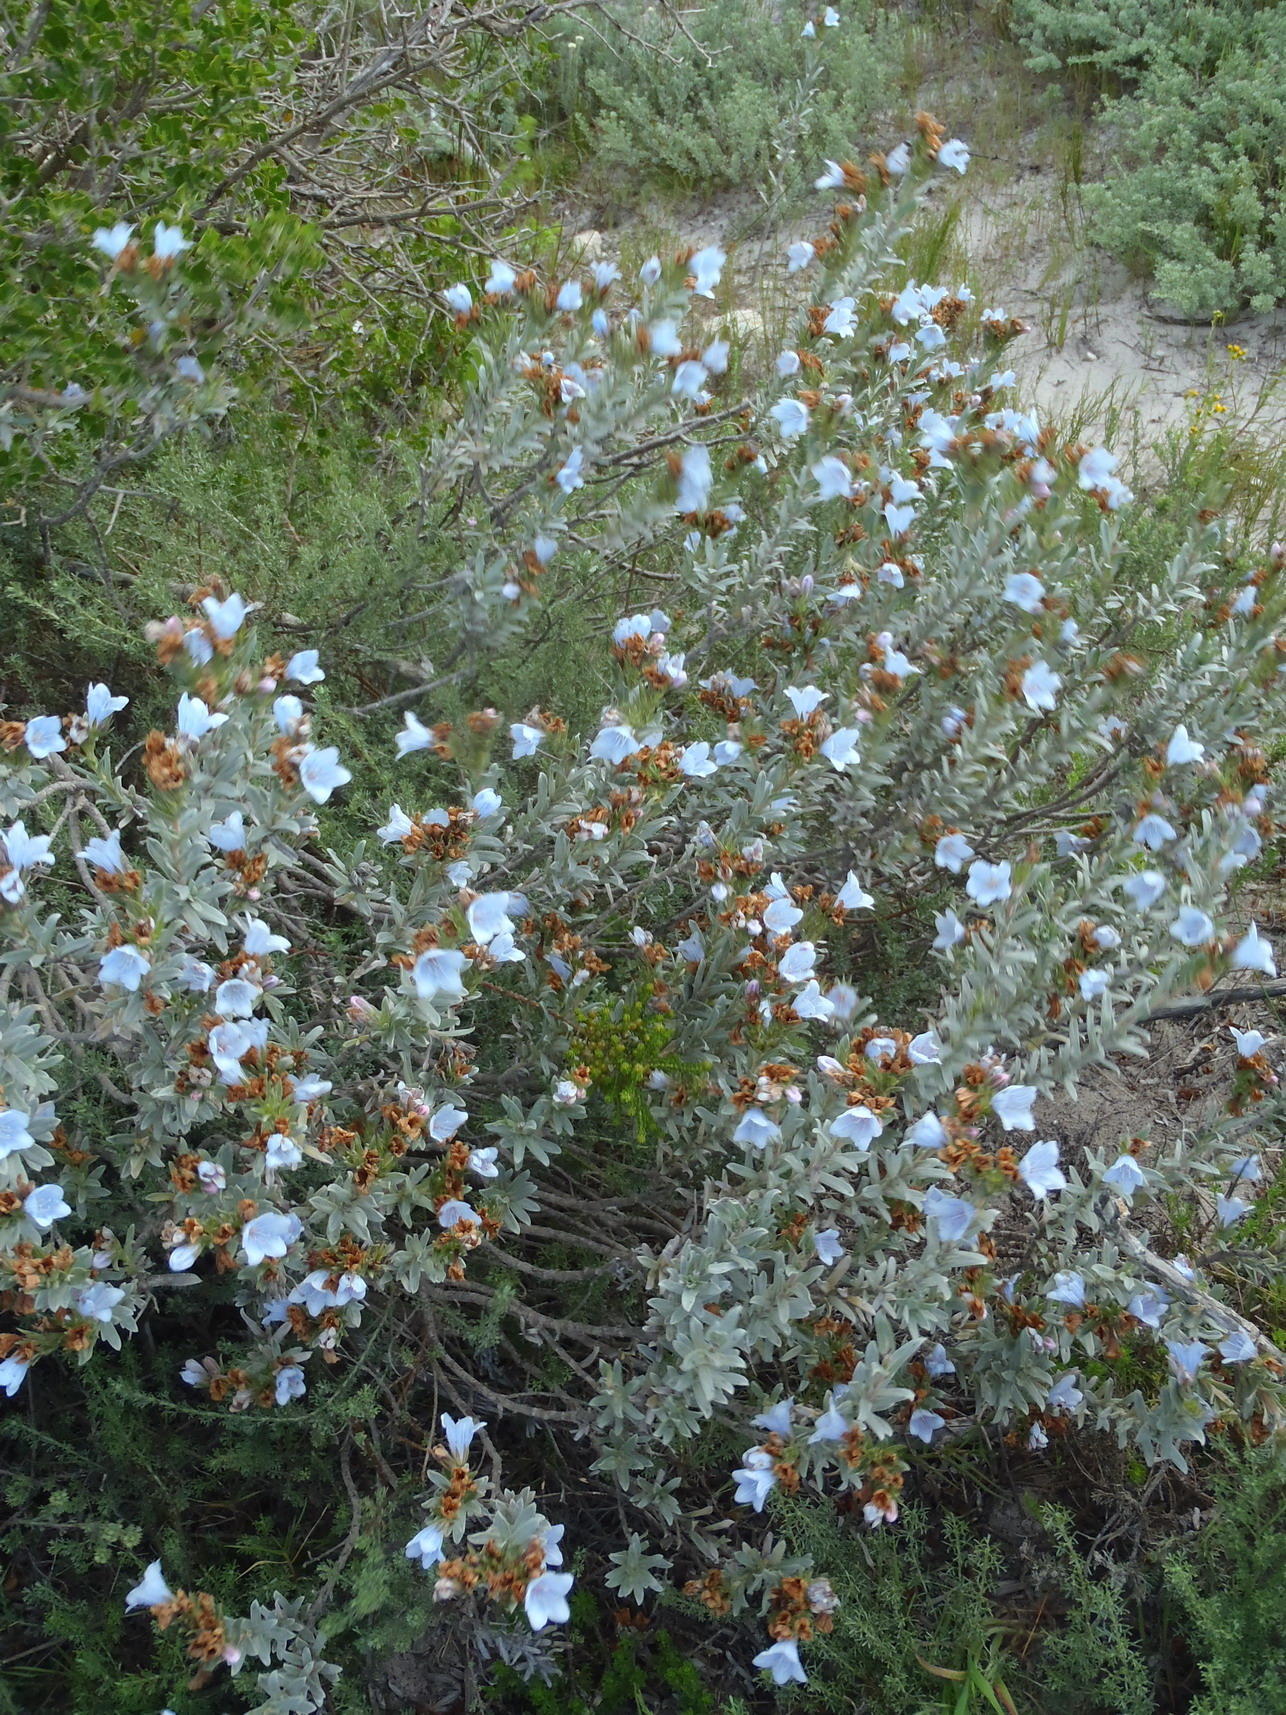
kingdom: Plantae
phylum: Tracheophyta
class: Magnoliopsida
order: Boraginales
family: Boraginaceae
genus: Lobostemon
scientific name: Lobostemon curvifolius
